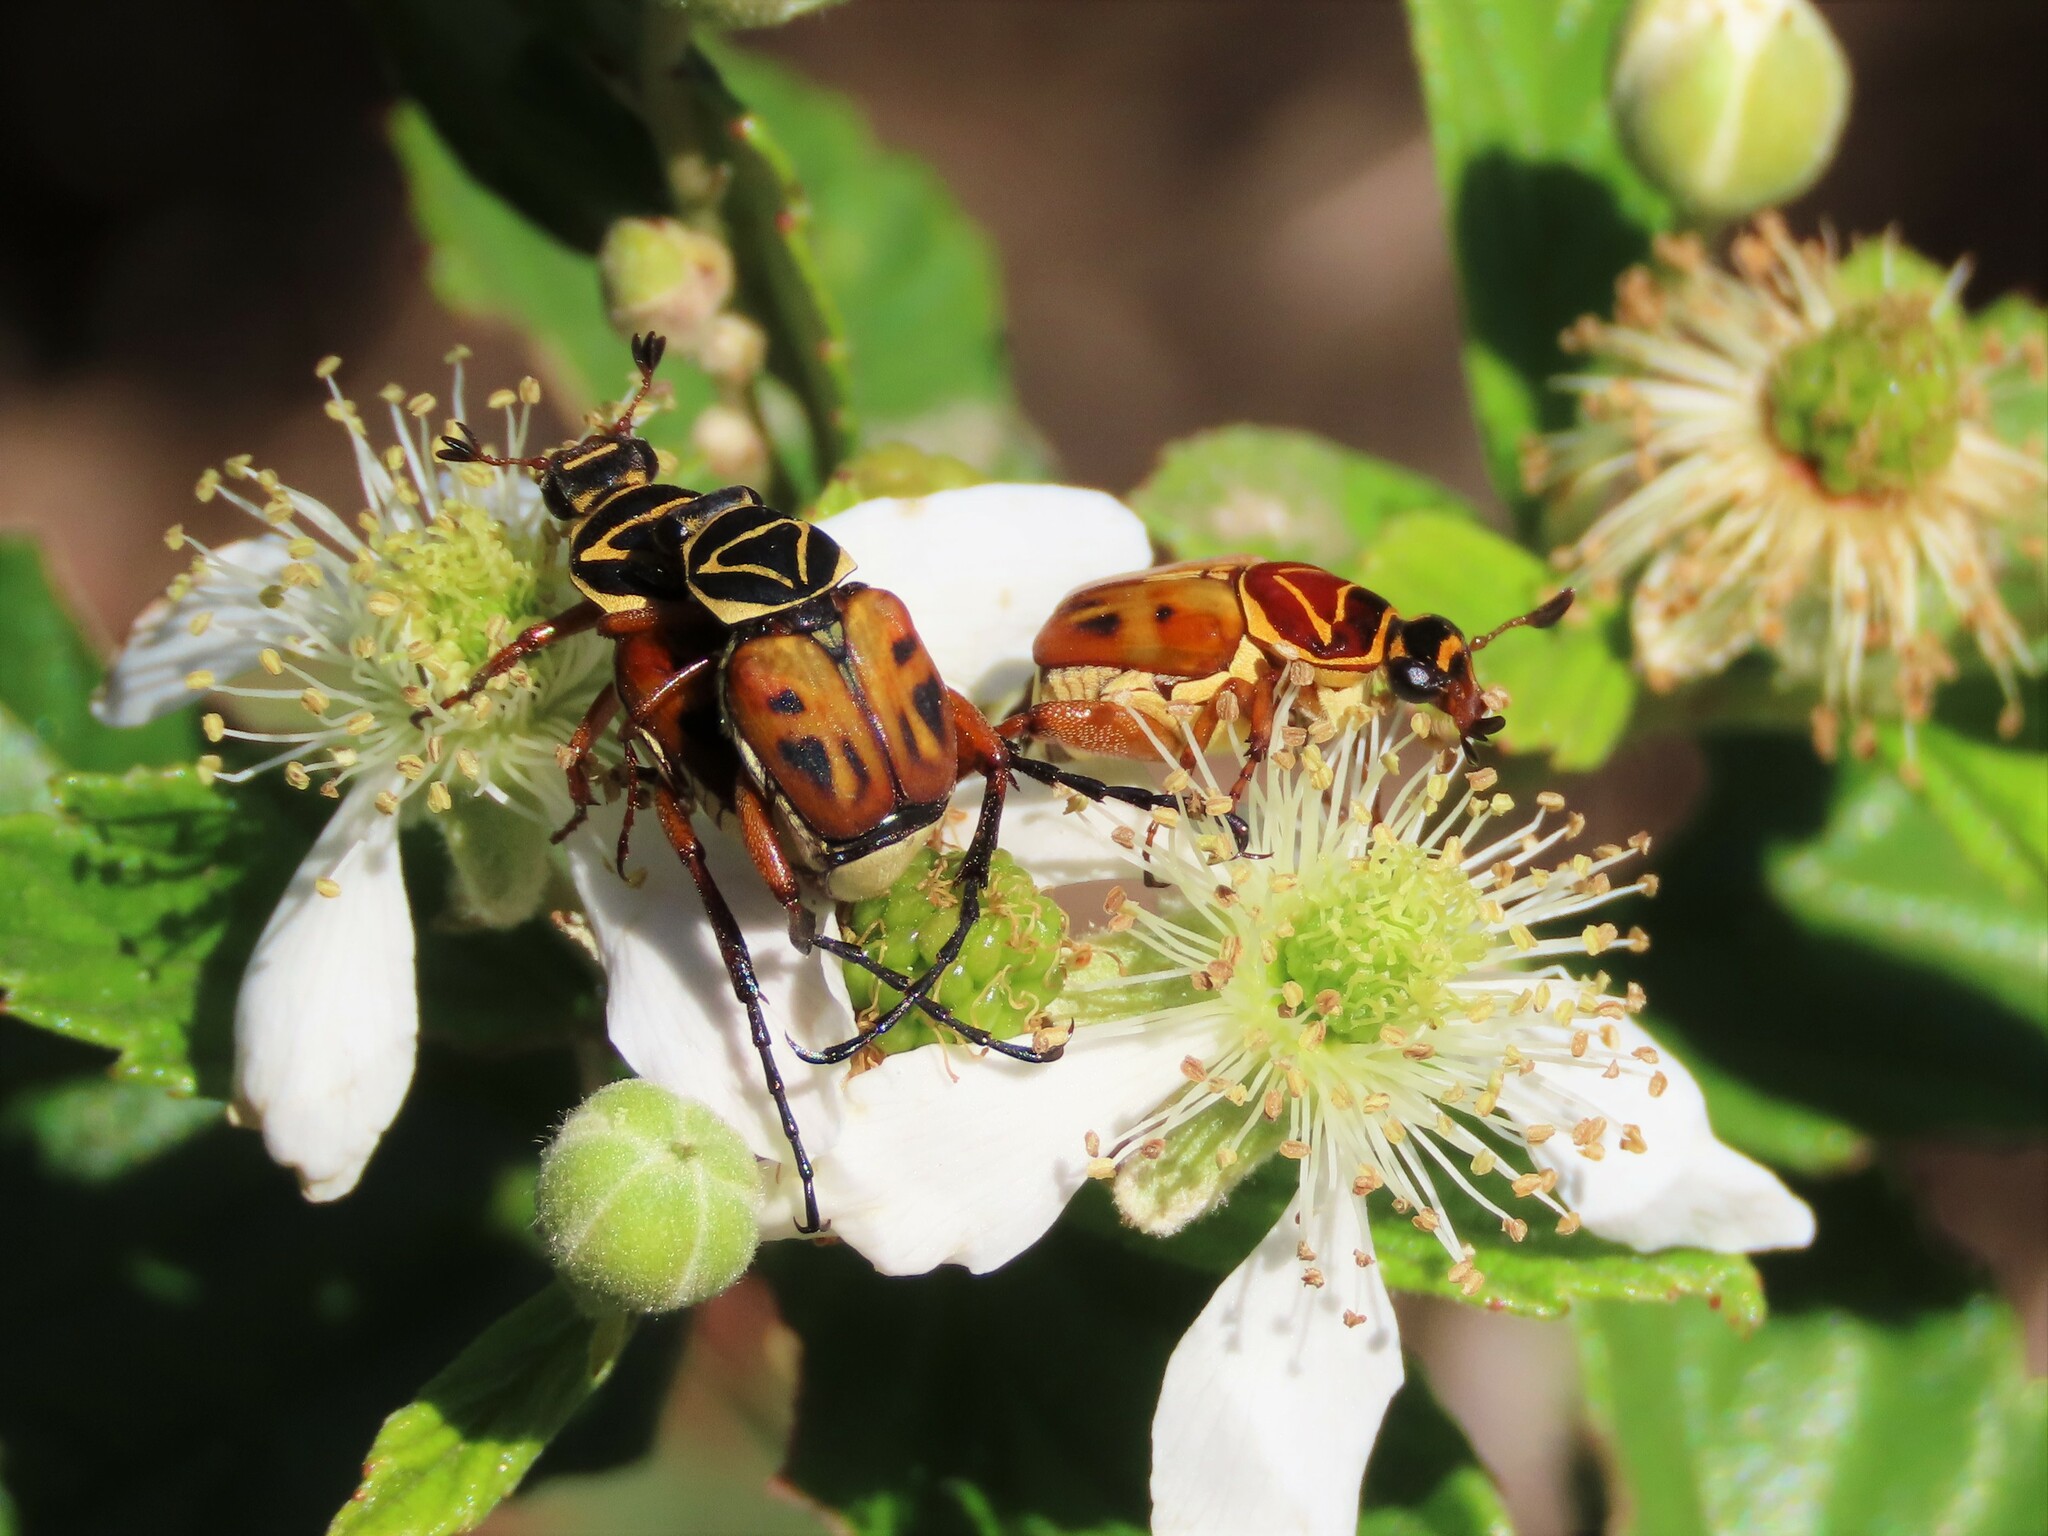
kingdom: Animalia
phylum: Arthropoda
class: Insecta
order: Coleoptera
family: Scarabaeidae
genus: Trigonopeltastes
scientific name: Trigonopeltastes delta
